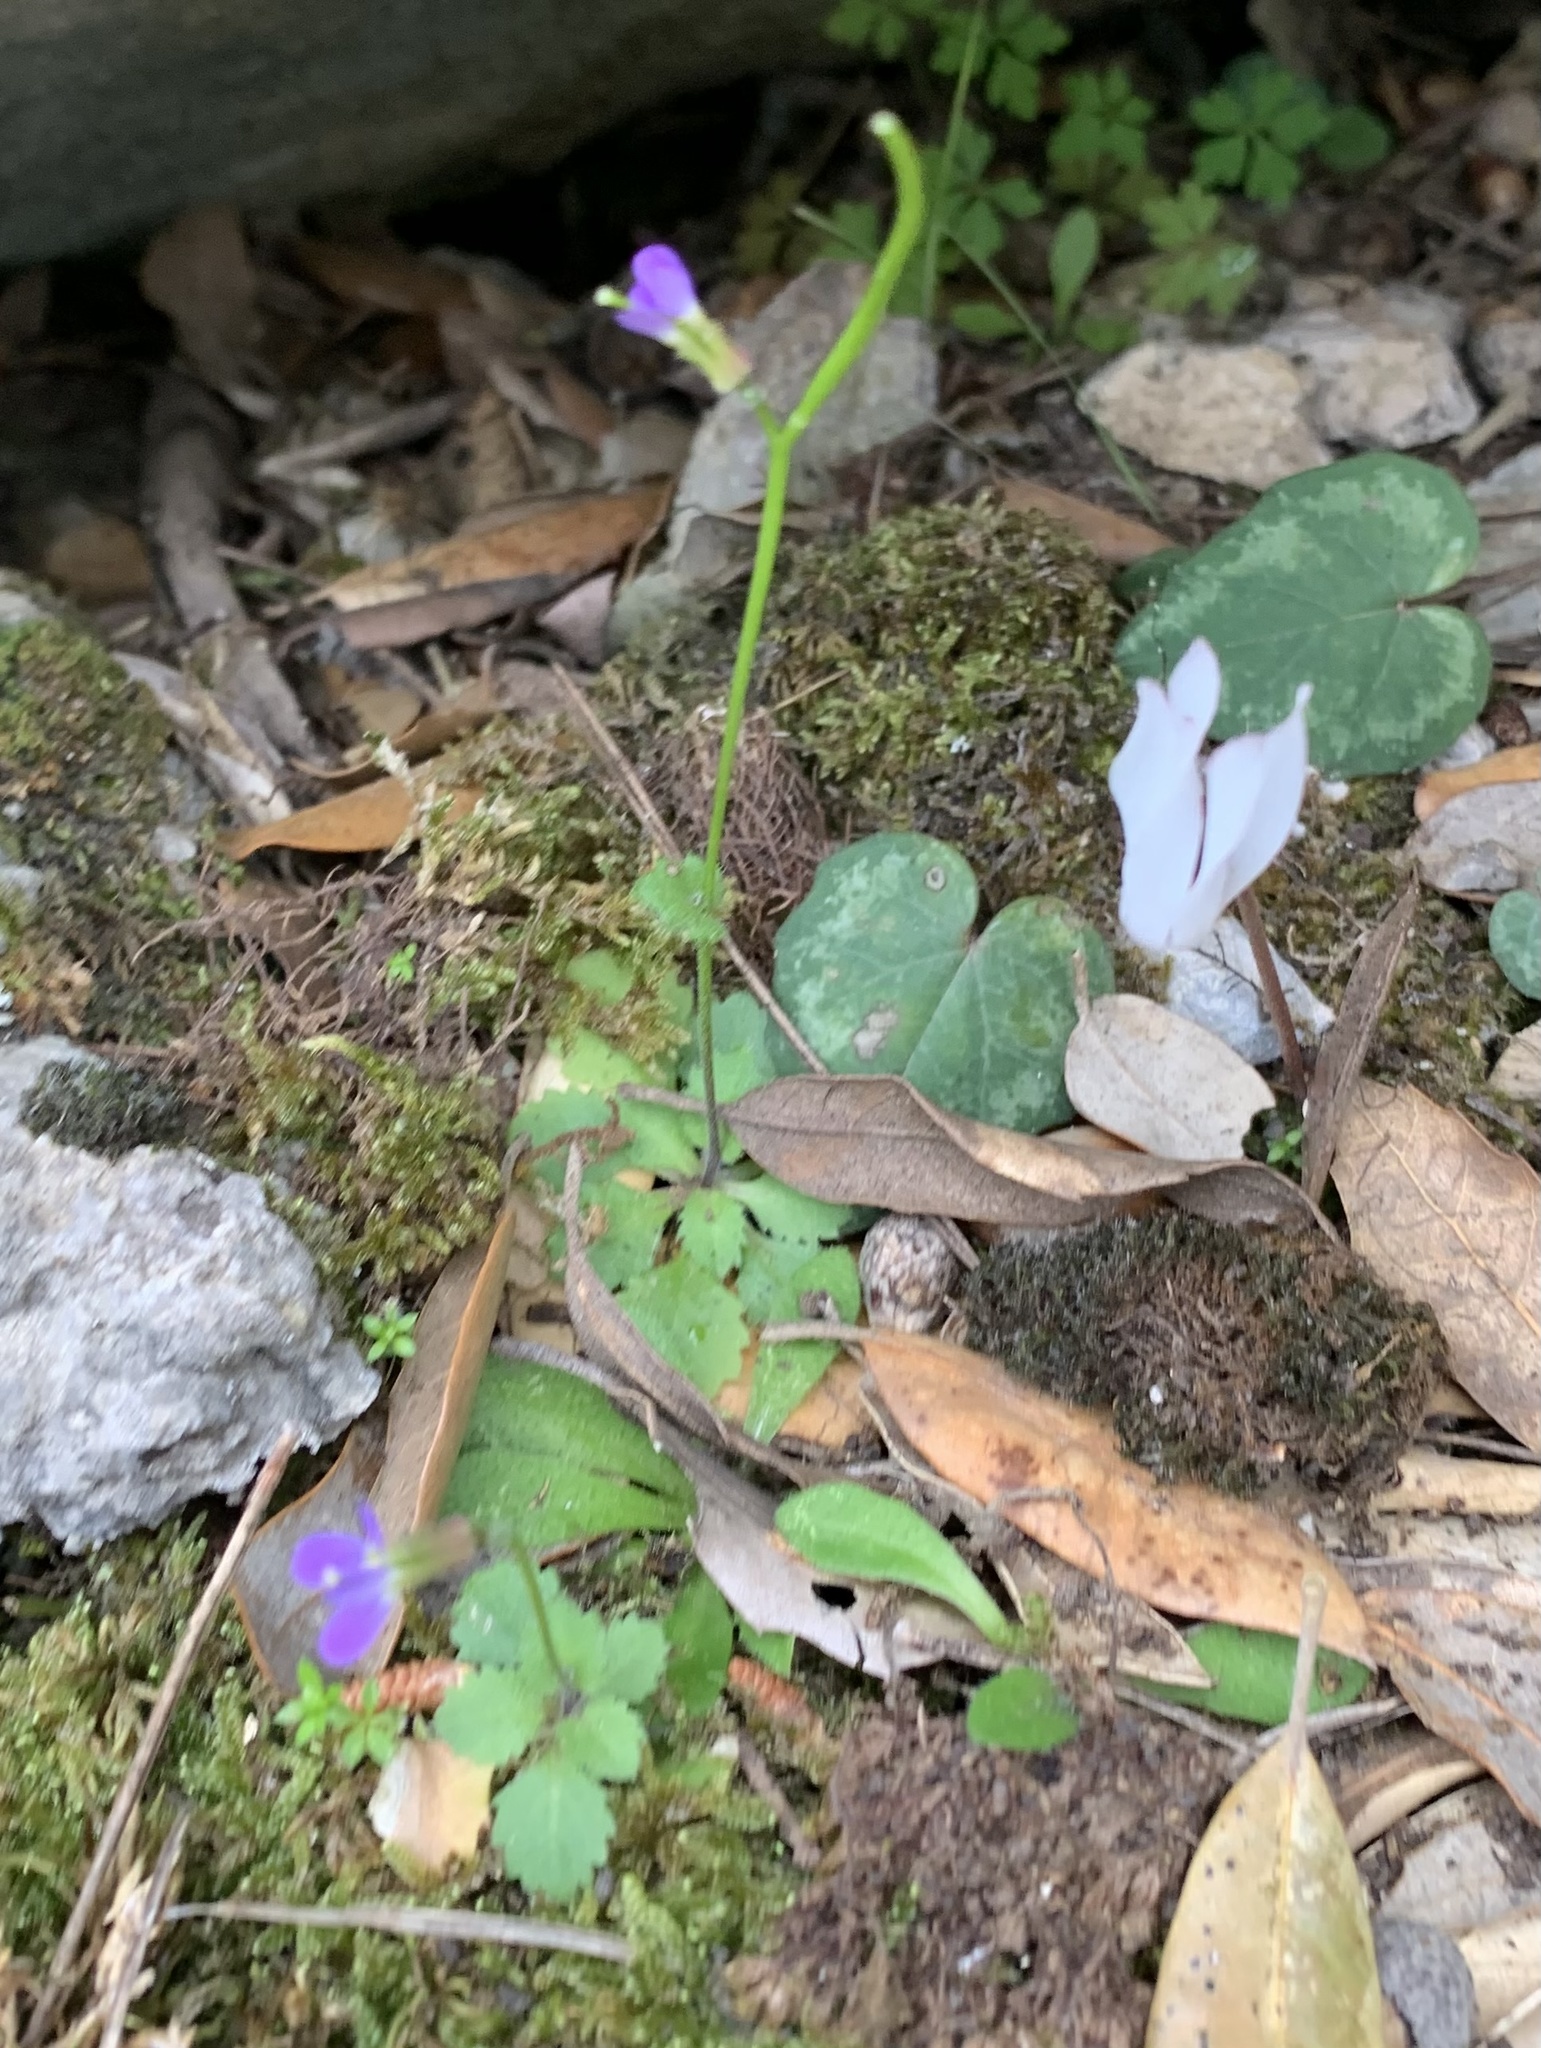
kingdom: Plantae
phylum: Tracheophyta
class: Magnoliopsida
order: Brassicales
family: Brassicaceae
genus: Arabis
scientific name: Arabis verna
